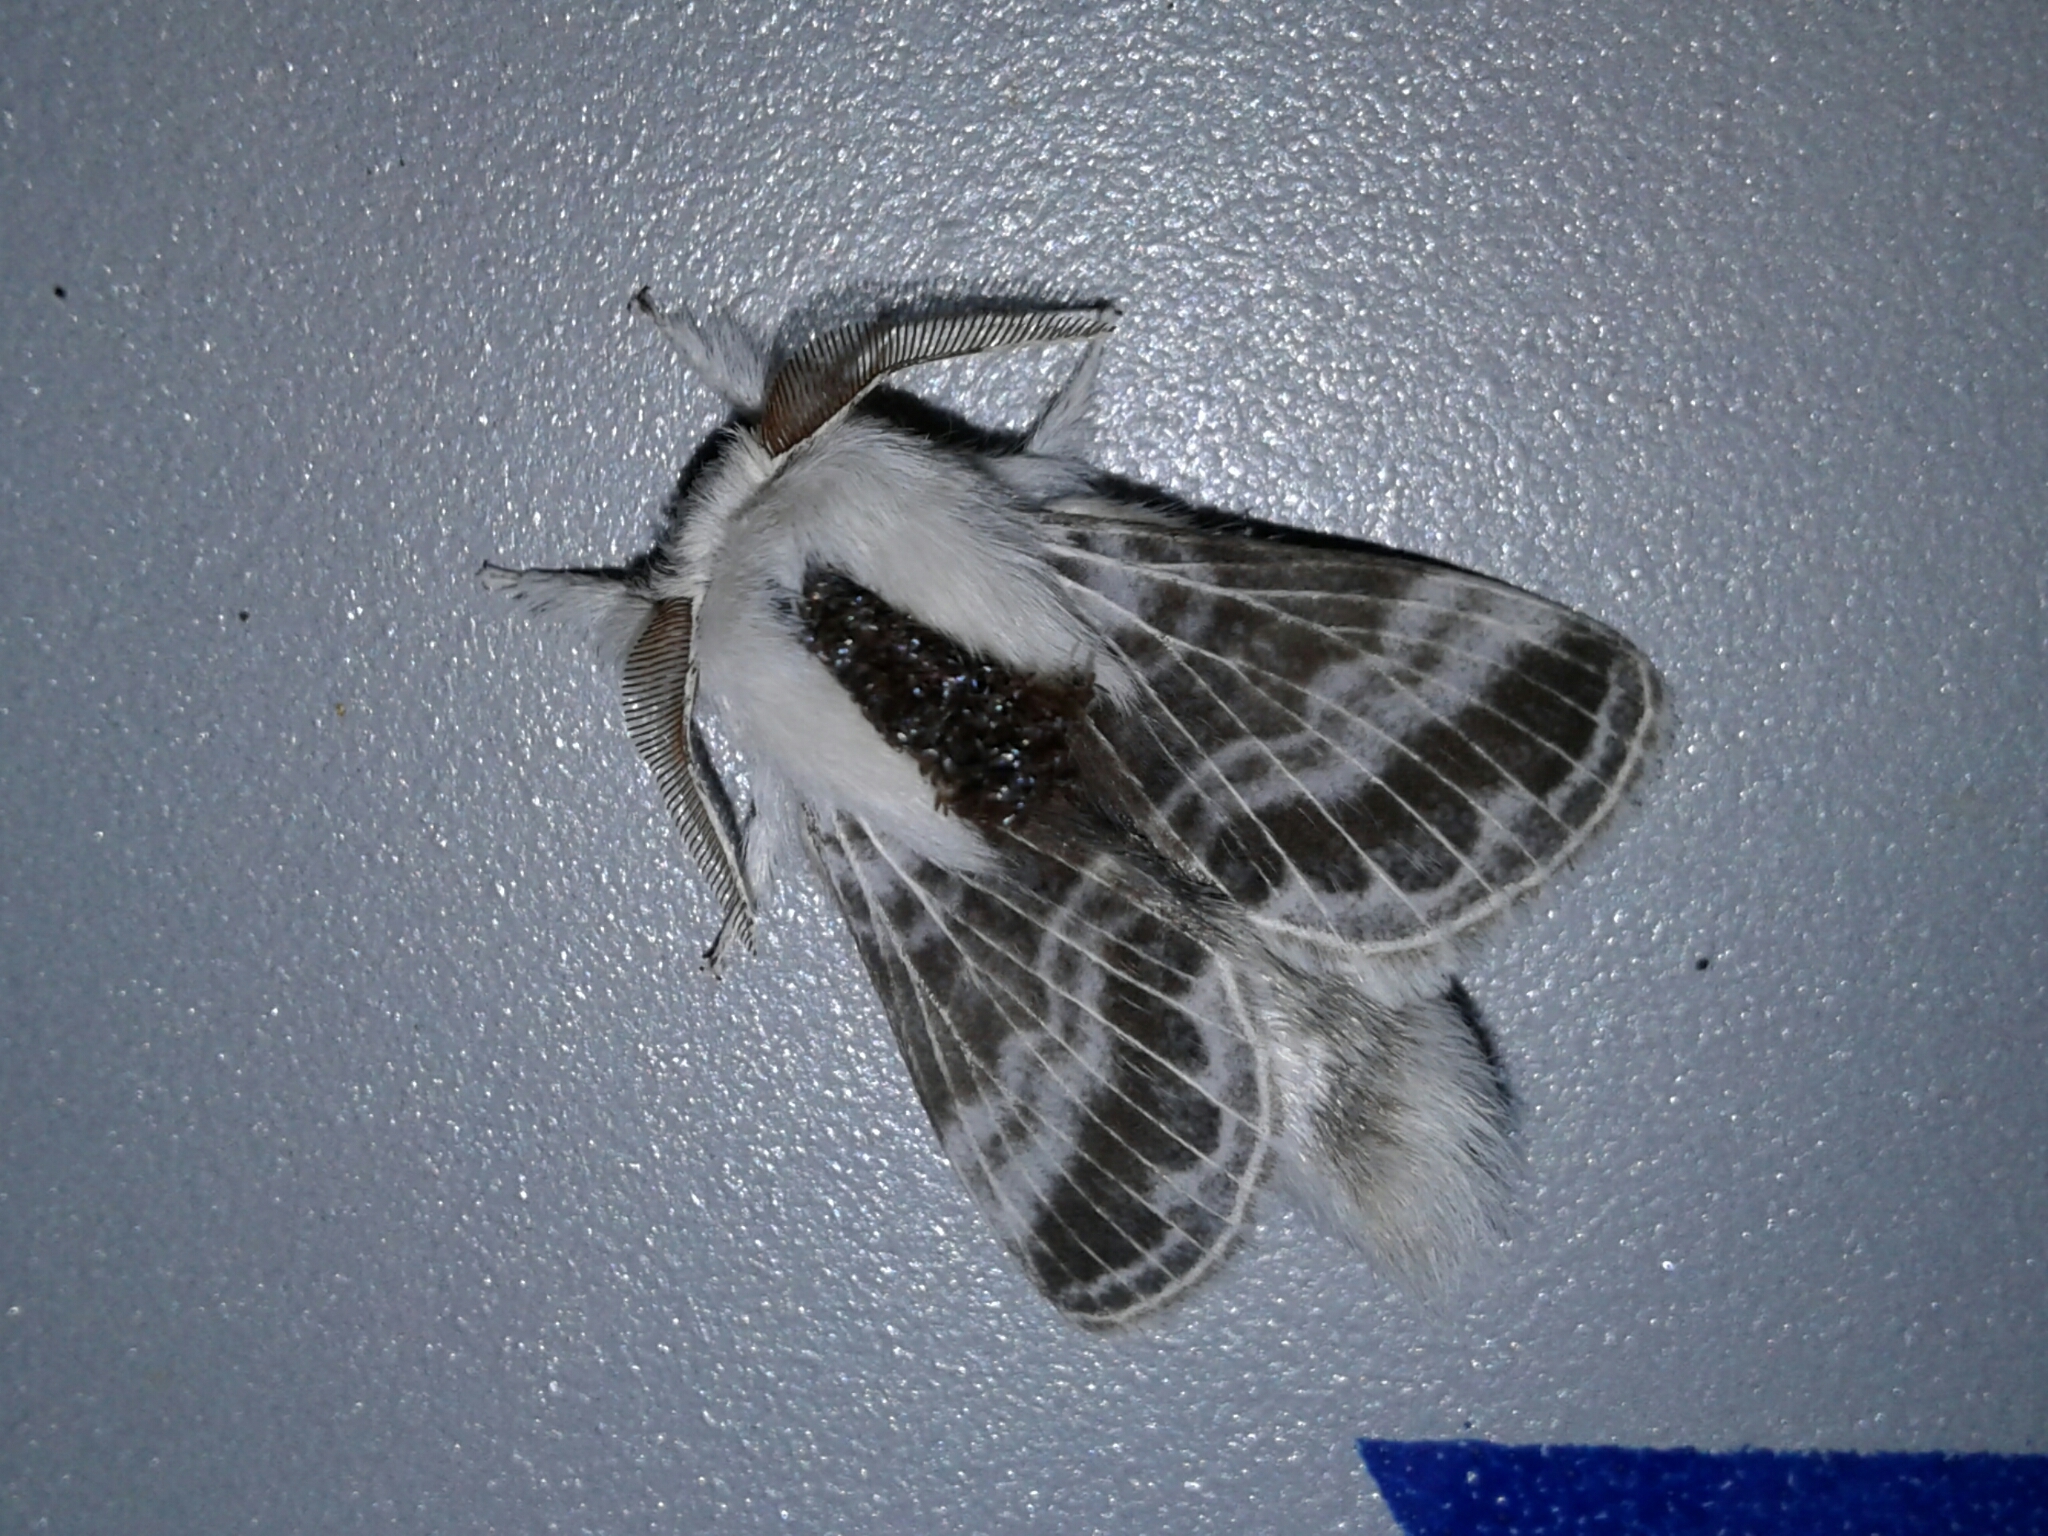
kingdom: Animalia
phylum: Arthropoda
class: Insecta
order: Lepidoptera
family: Lasiocampidae
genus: Tolype
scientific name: Tolype velleda
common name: Large tolype moth
